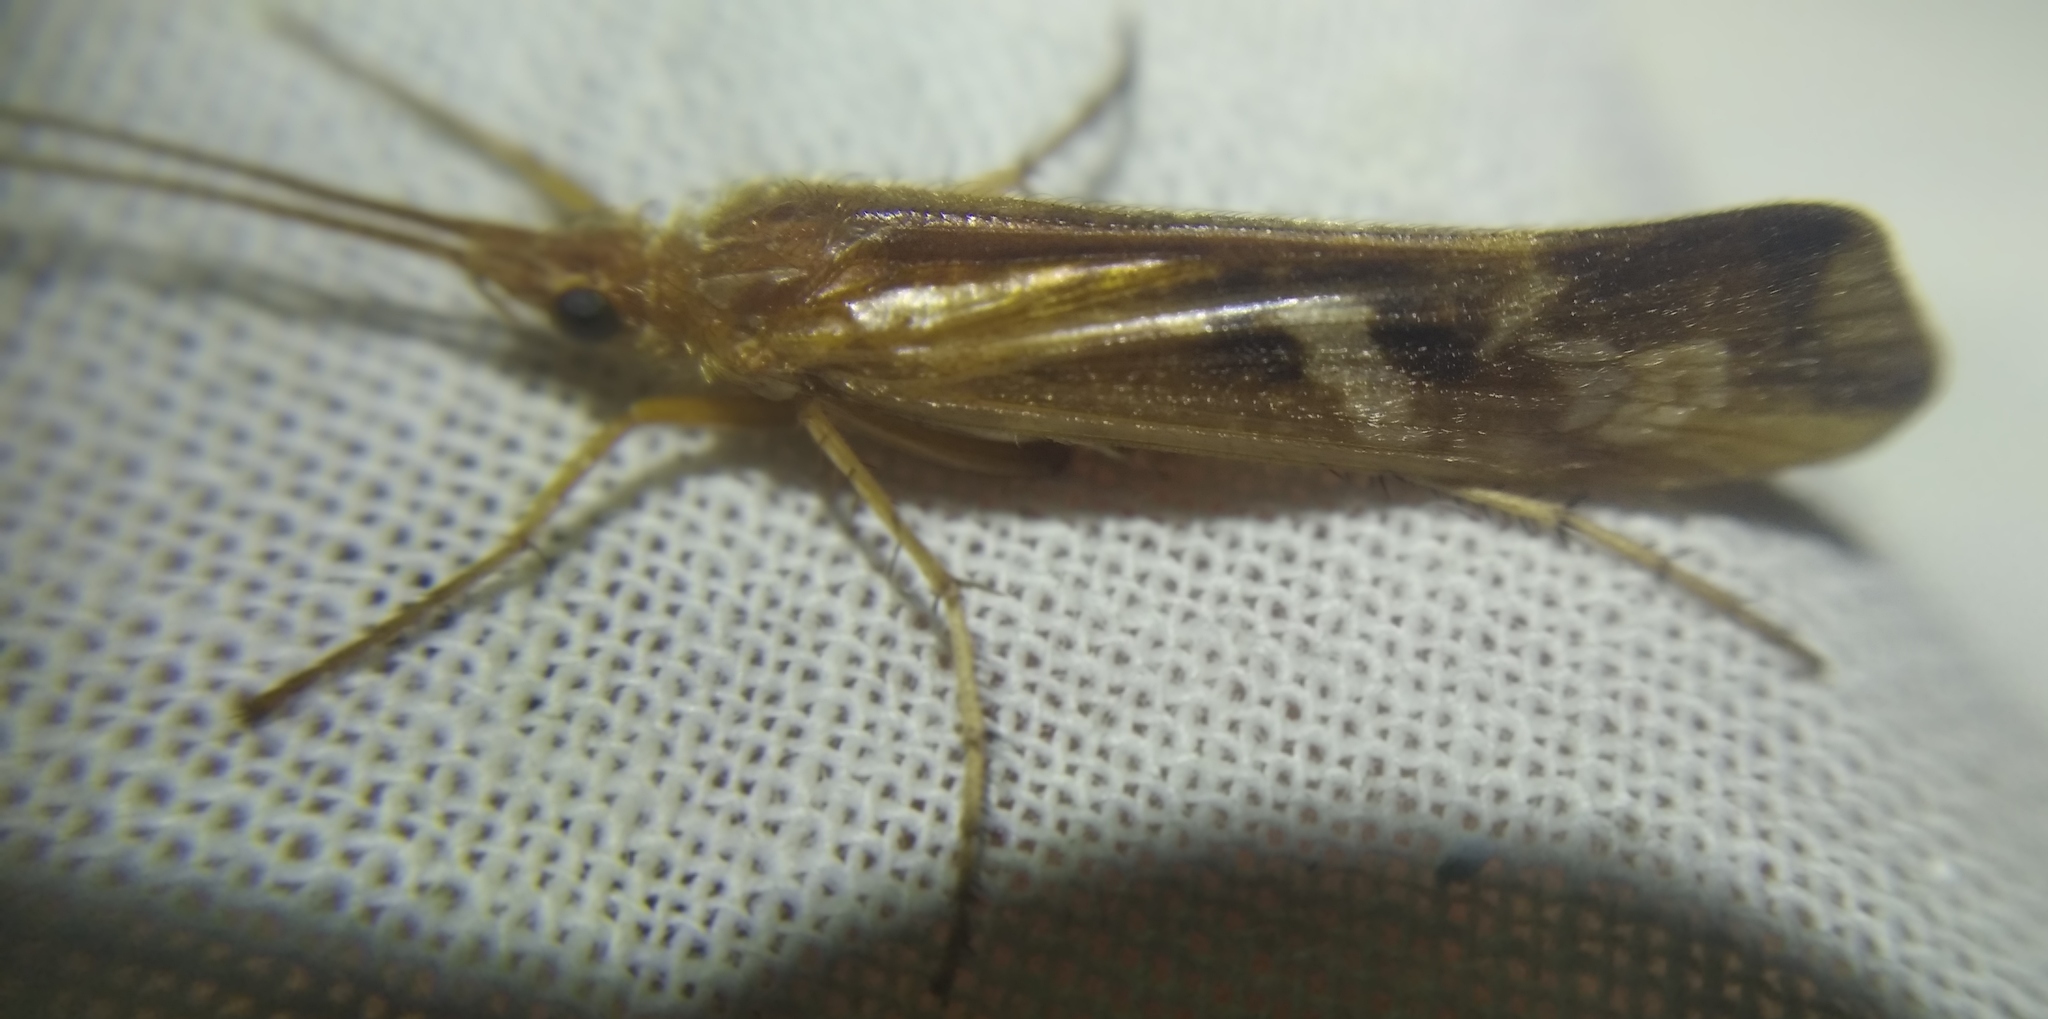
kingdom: Animalia
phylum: Arthropoda
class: Insecta
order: Trichoptera
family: Limnephilidae
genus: Limnephilus
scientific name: Limnephilus lunatus
